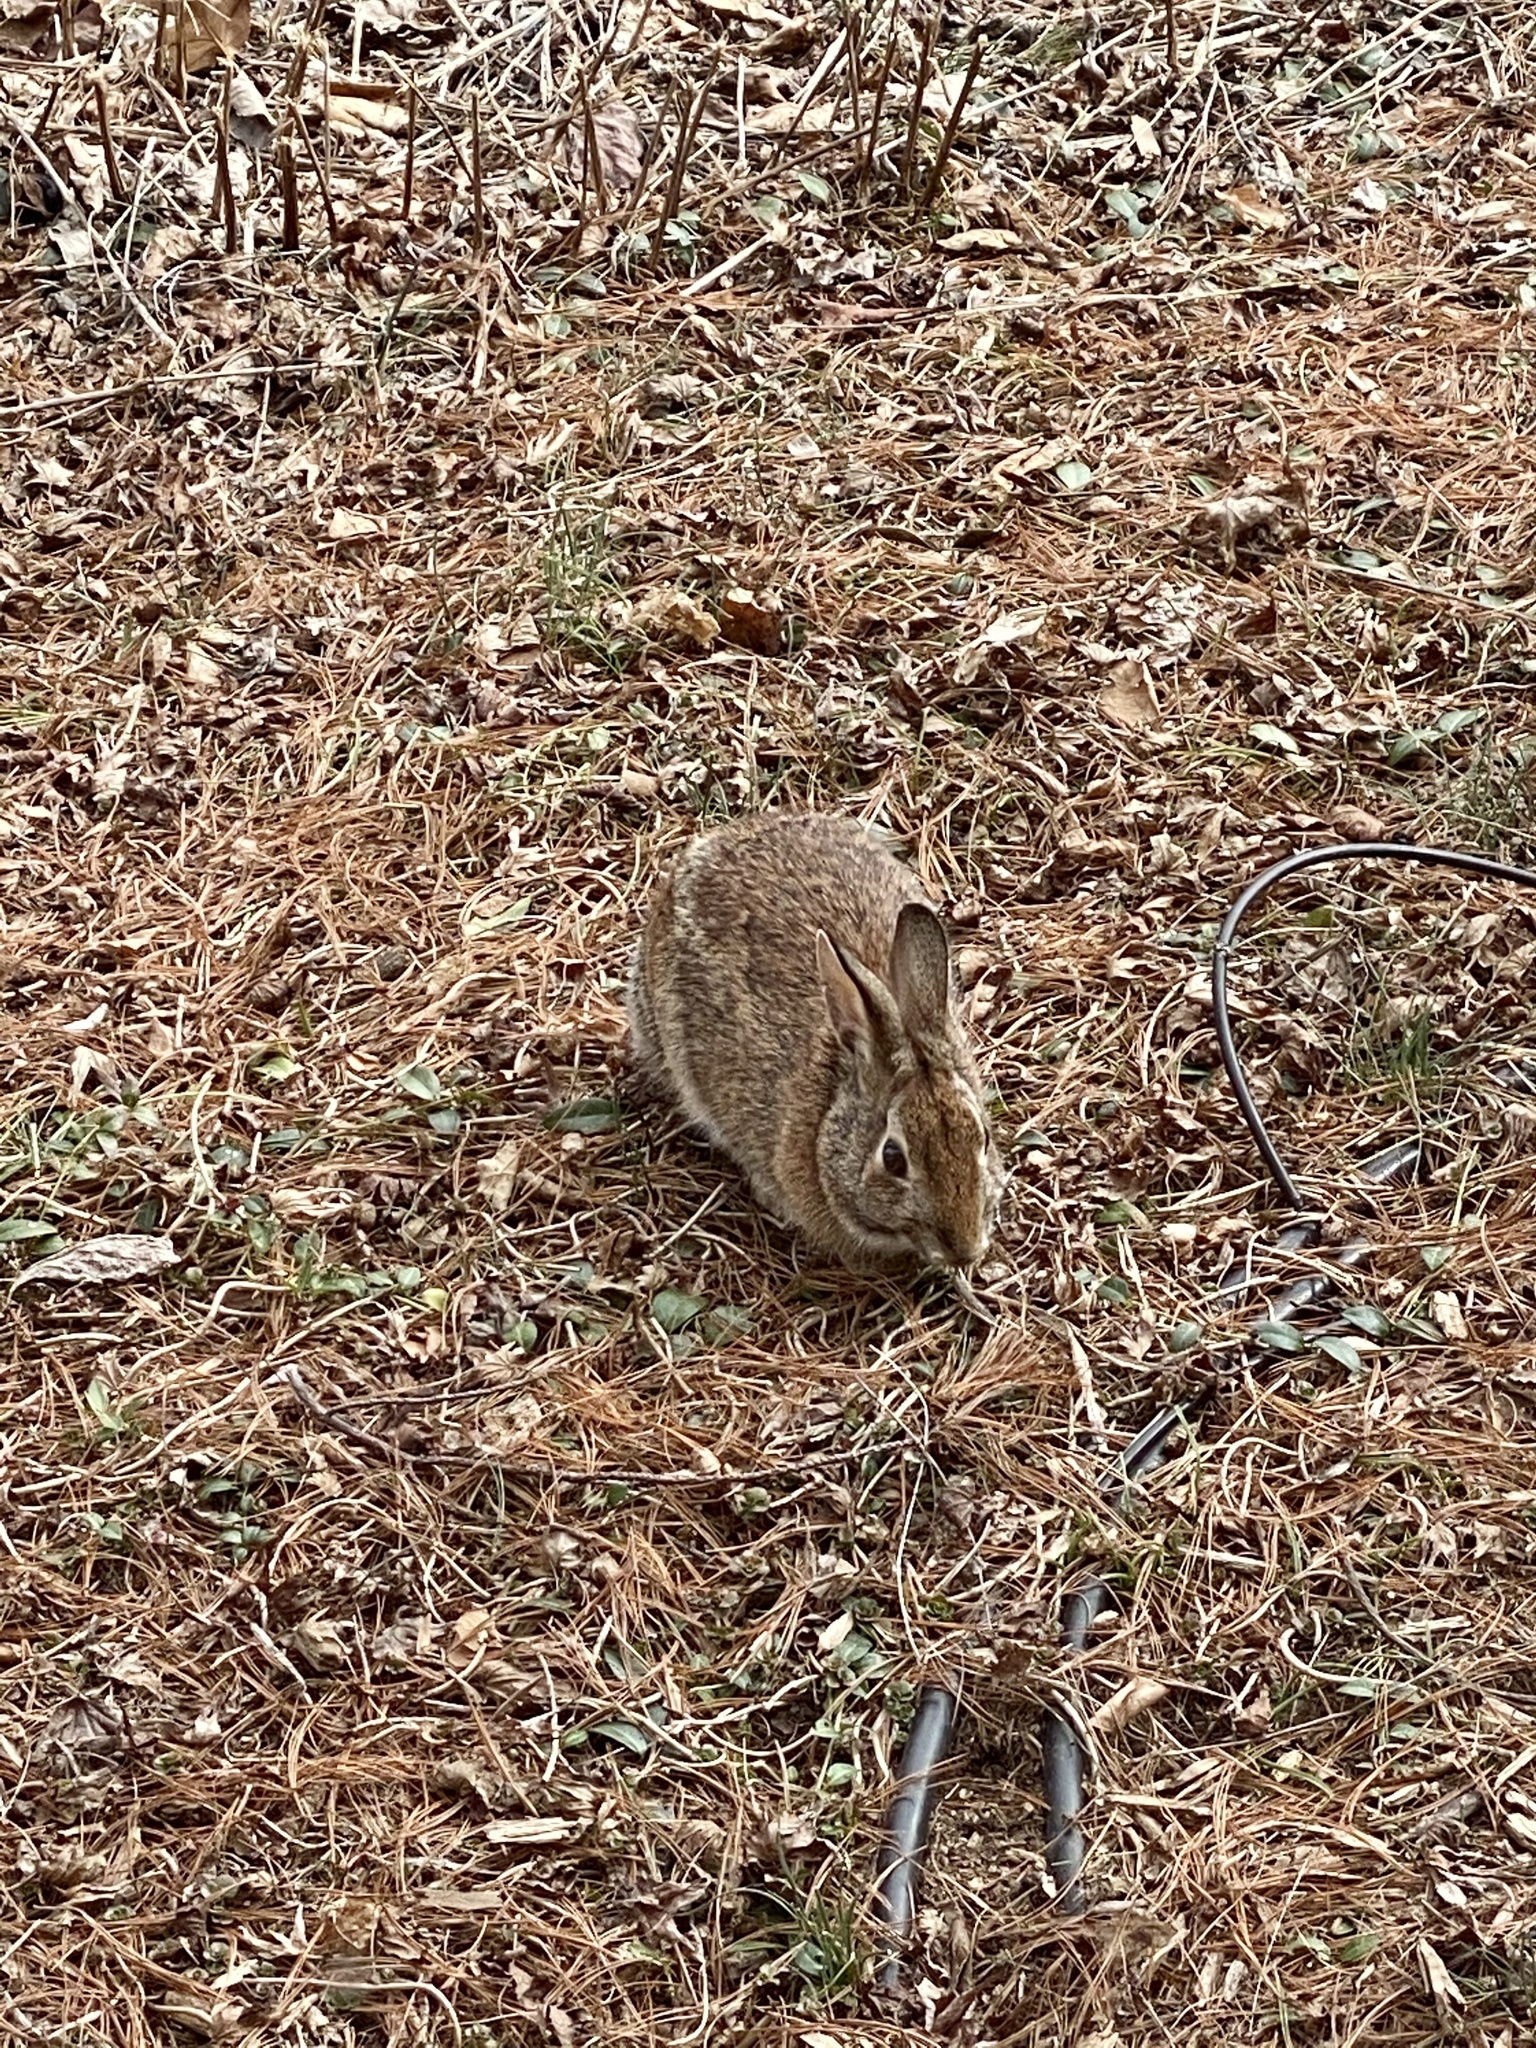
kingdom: Animalia
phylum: Chordata
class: Mammalia
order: Lagomorpha
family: Leporidae
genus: Sylvilagus
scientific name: Sylvilagus floridanus
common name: Eastern cottontail
